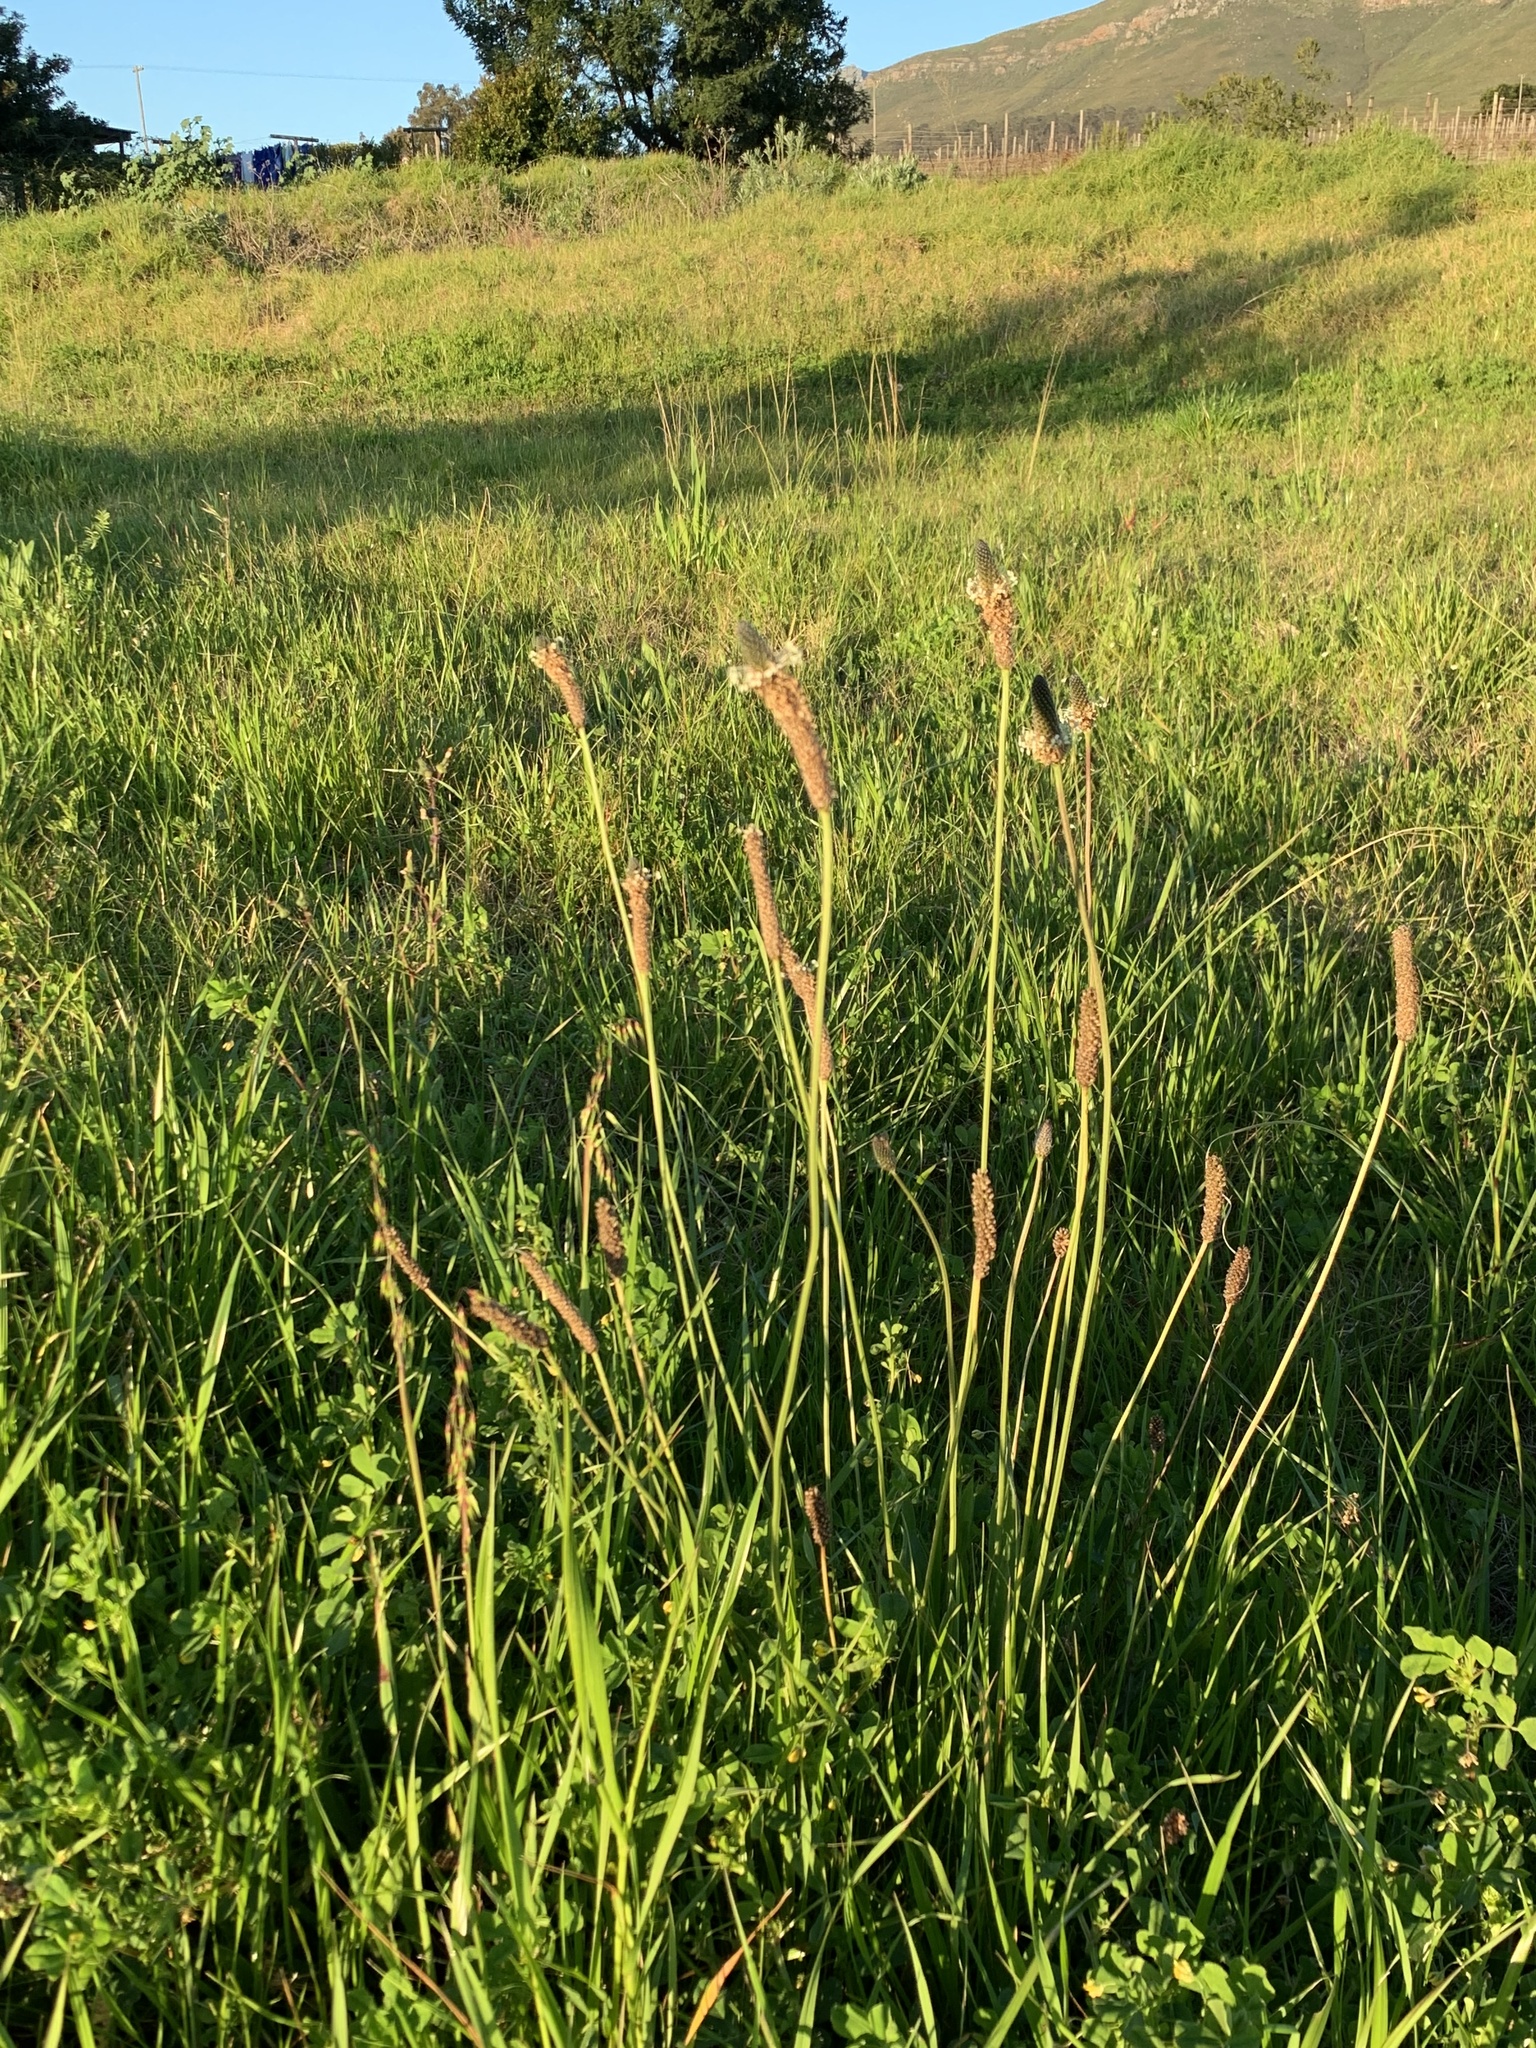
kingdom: Plantae
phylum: Tracheophyta
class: Magnoliopsida
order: Lamiales
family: Plantaginaceae
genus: Plantago
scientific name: Plantago lanceolata
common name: Ribwort plantain
